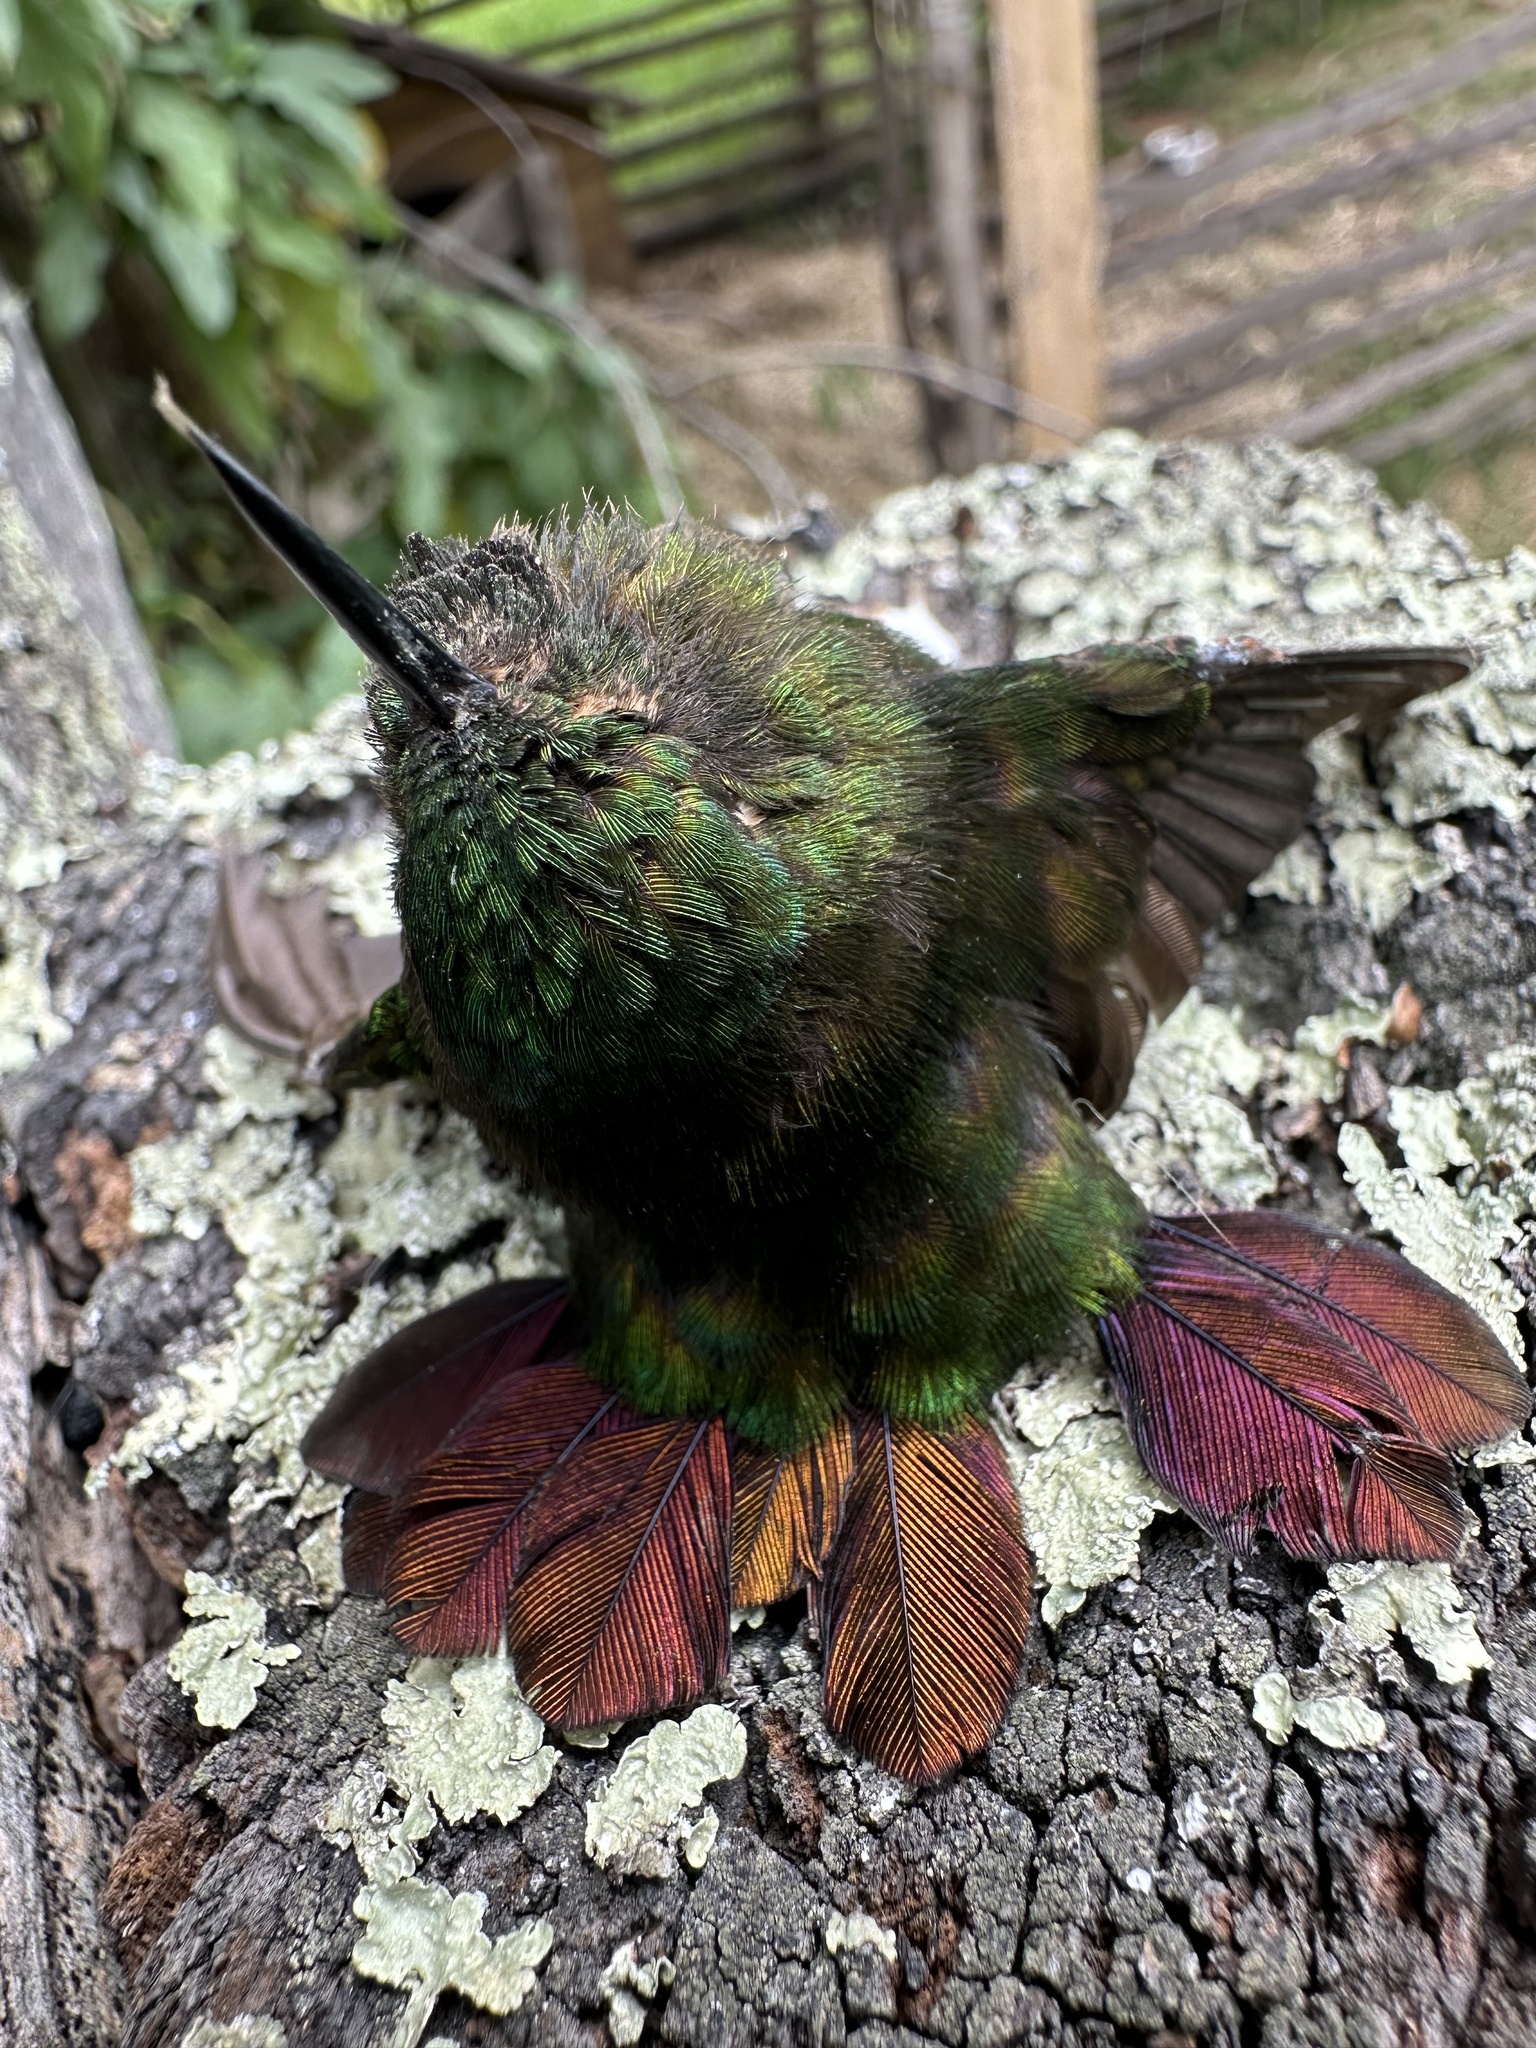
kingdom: Animalia
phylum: Chordata
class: Aves
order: Apodiformes
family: Trochilidae
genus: Metallura
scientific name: Metallura tyrianthina
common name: Tyrian metaltail
